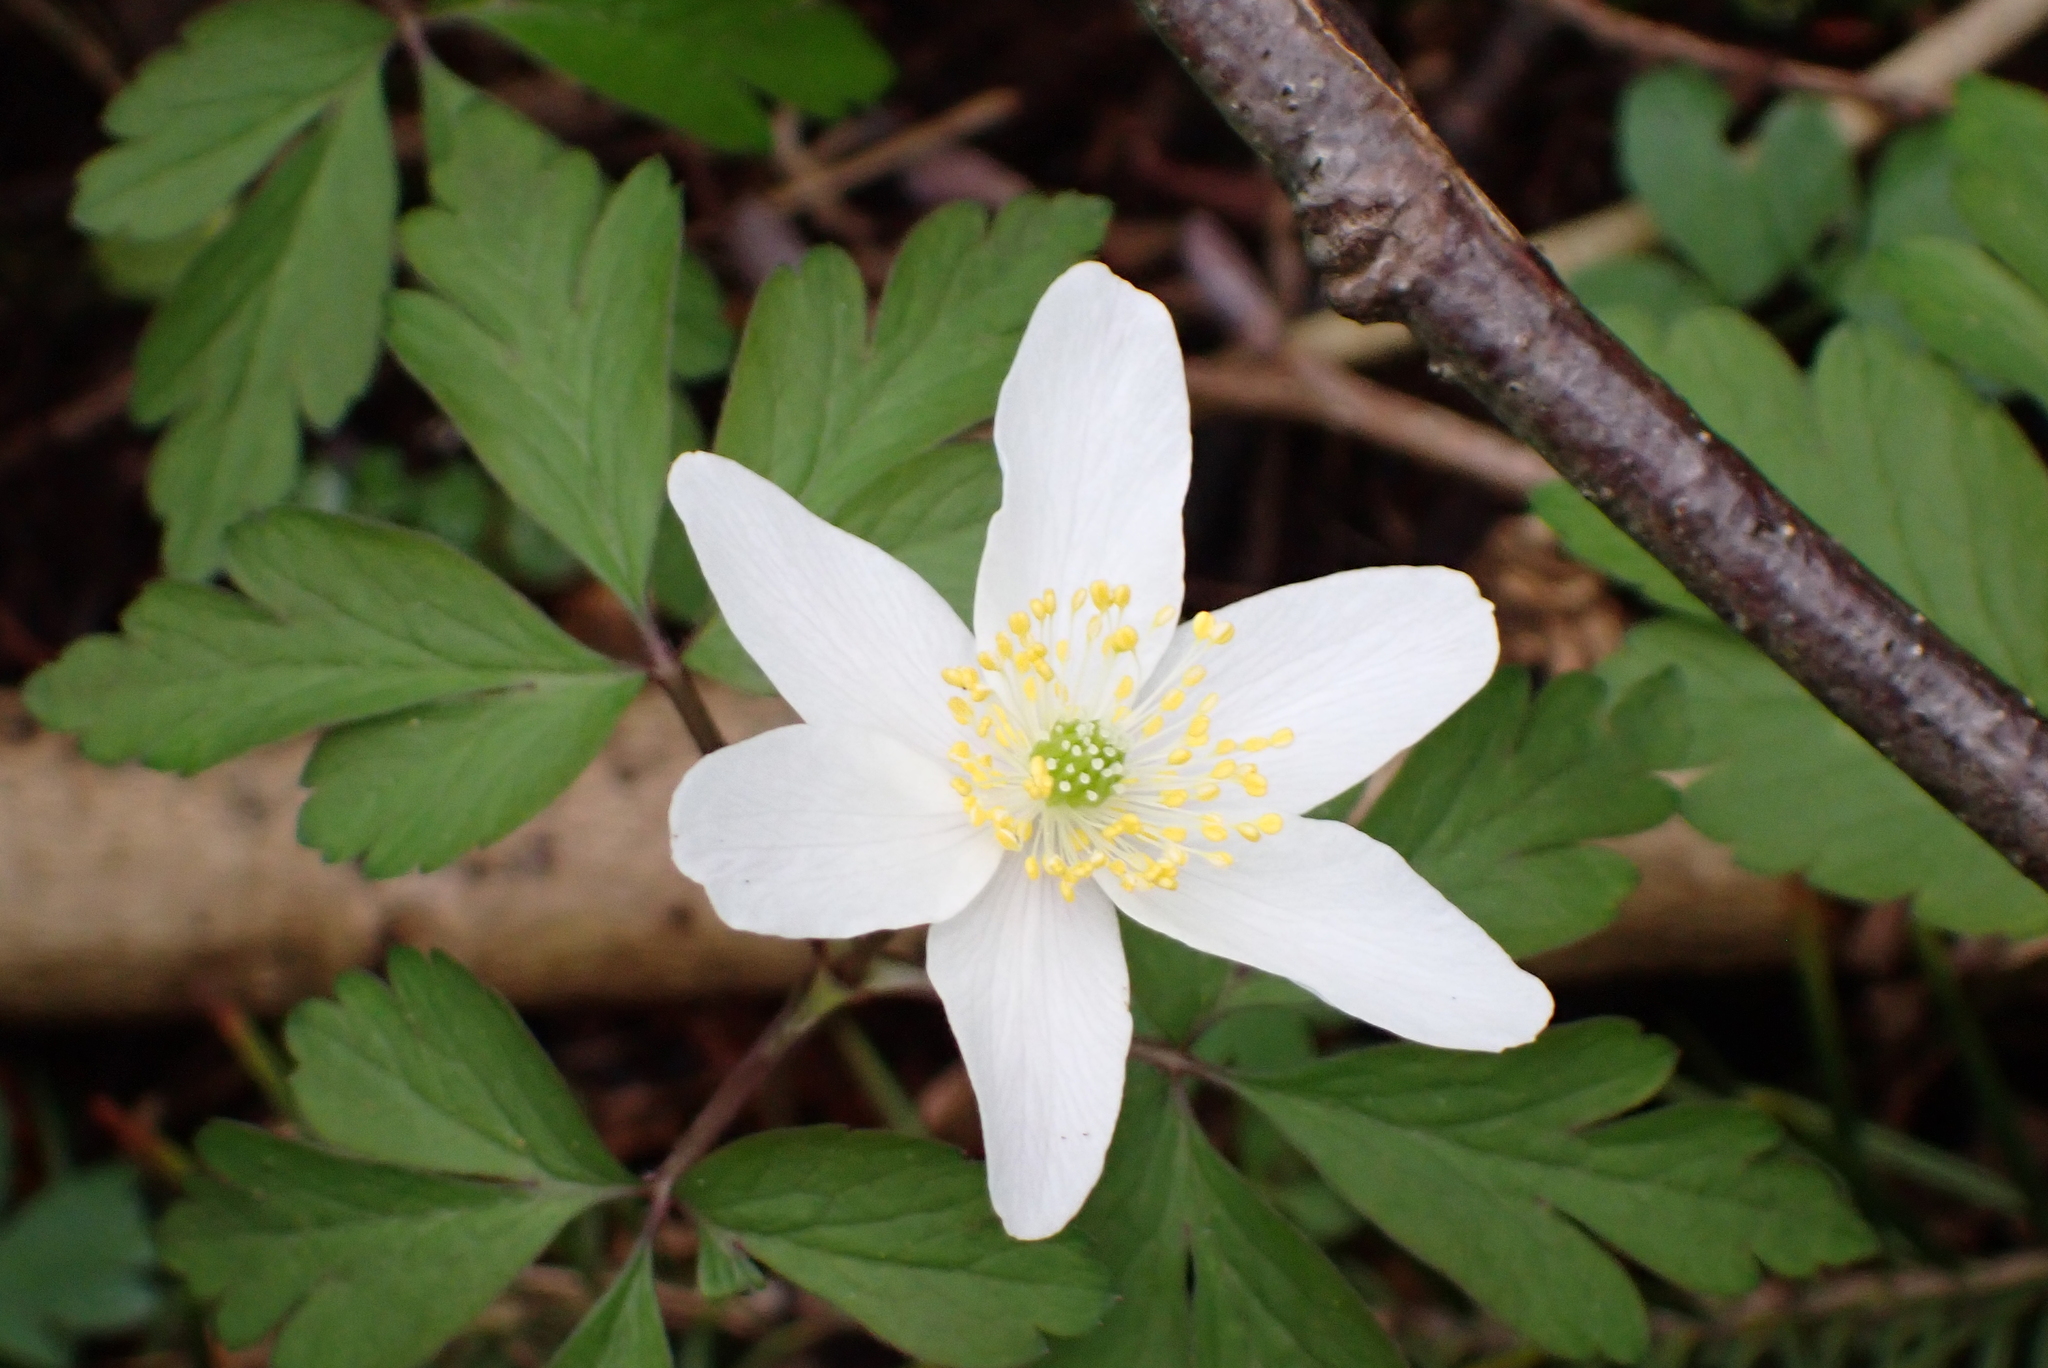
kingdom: Plantae
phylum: Tracheophyta
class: Magnoliopsida
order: Ranunculales
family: Ranunculaceae
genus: Anemone
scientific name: Anemone nemorosa
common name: Wood anemone
